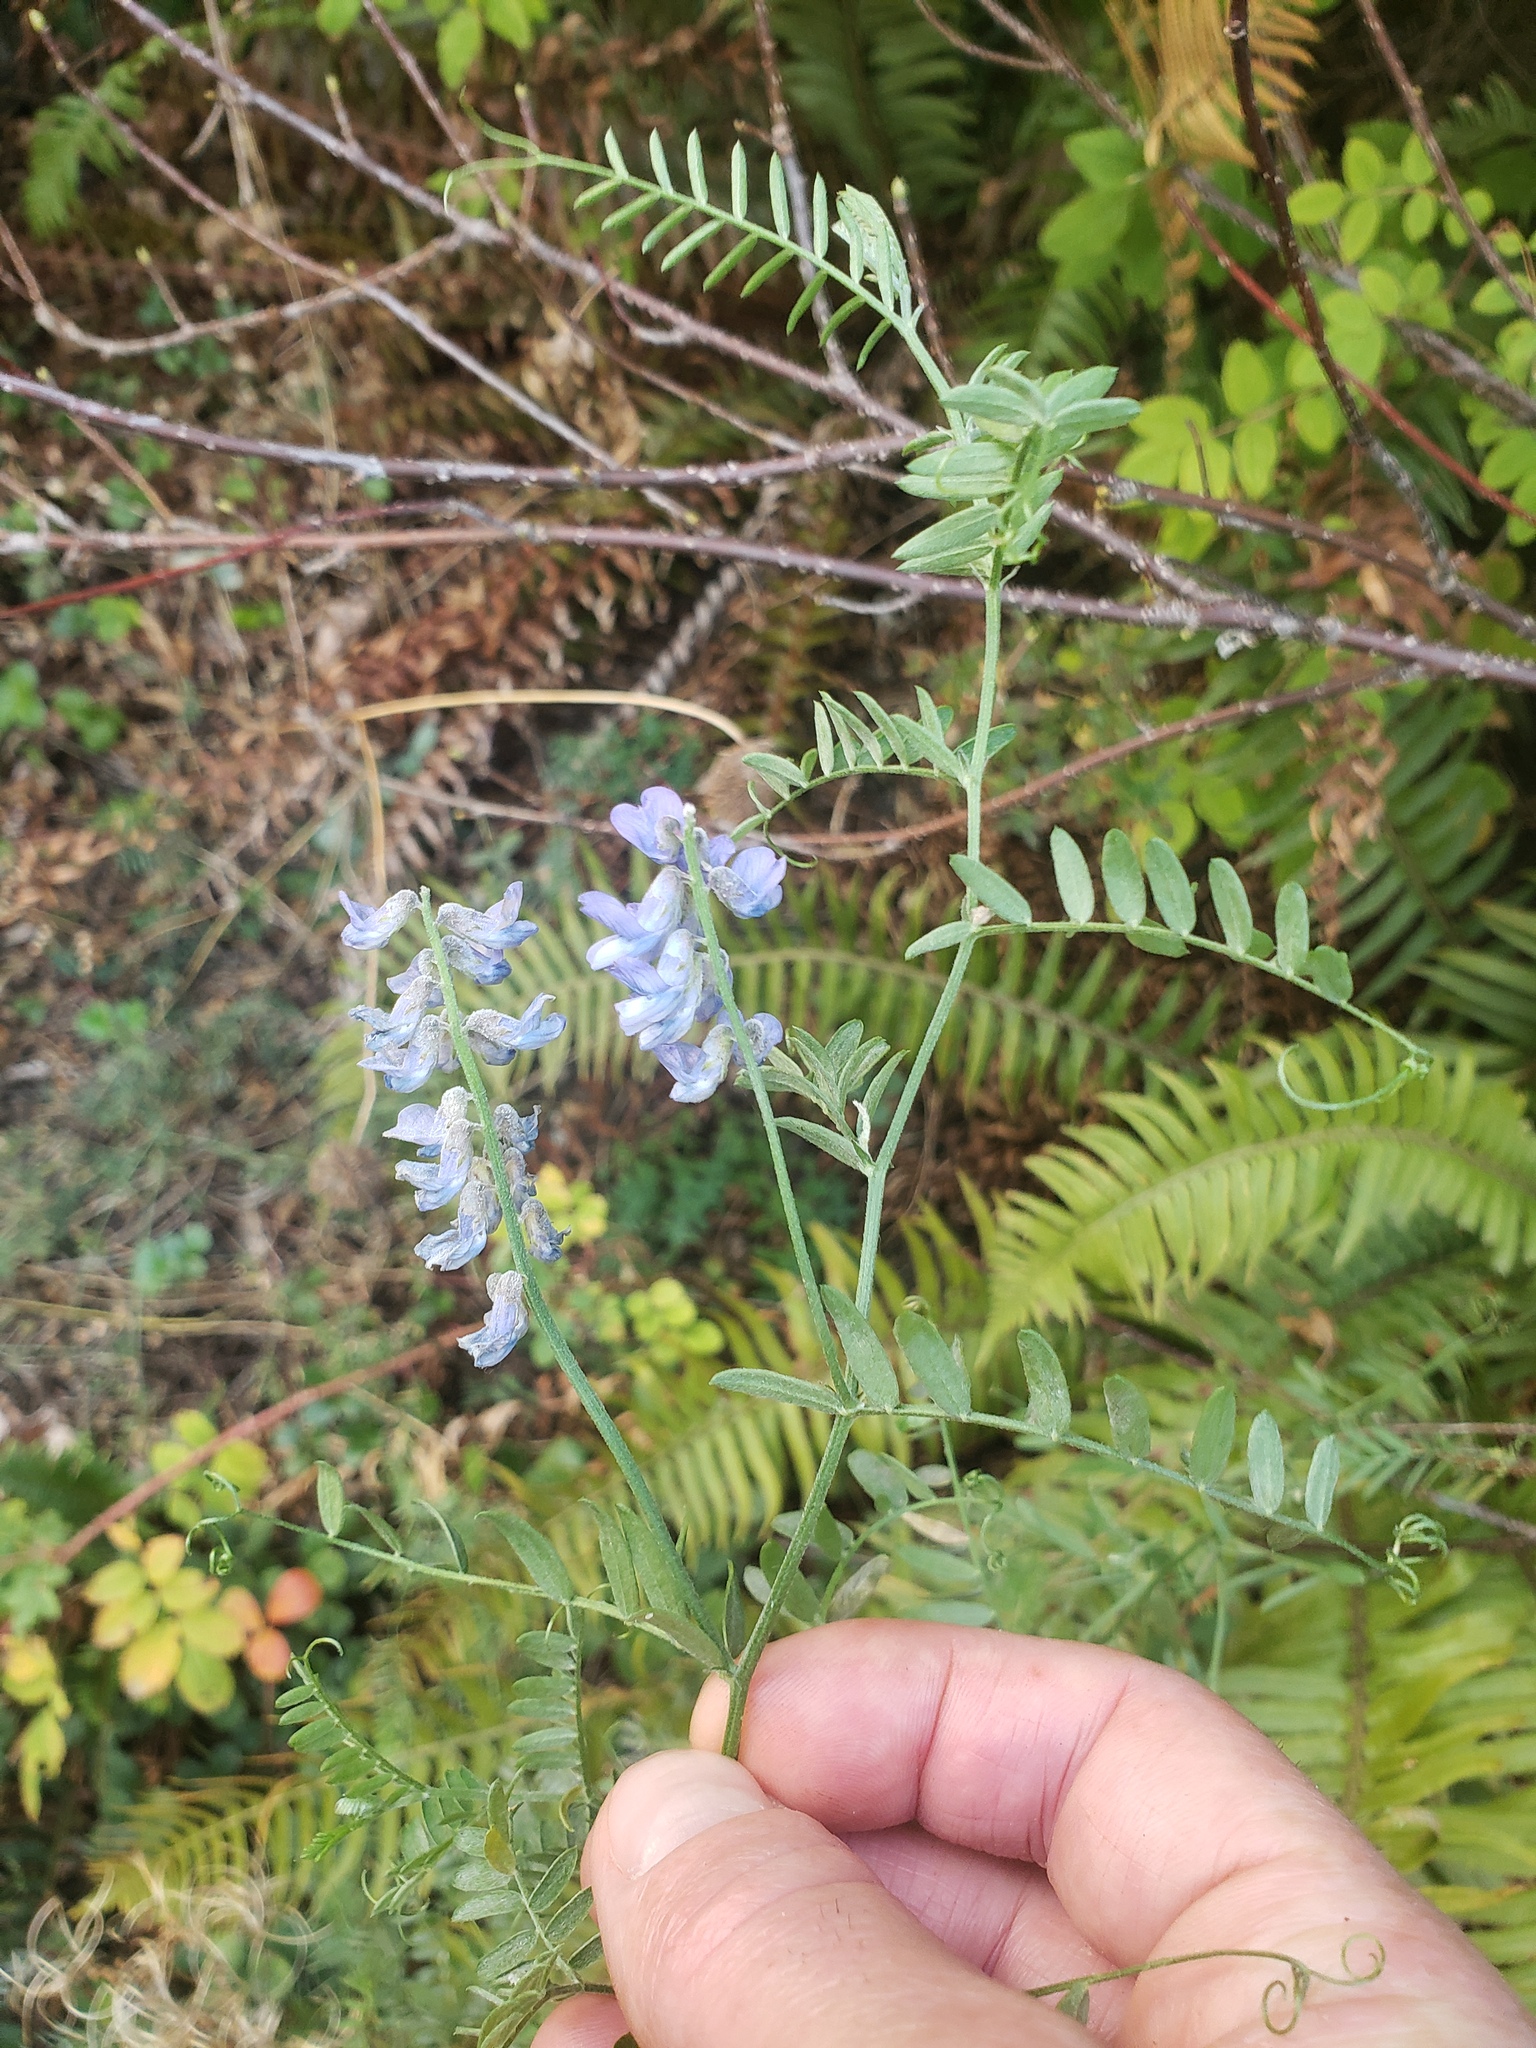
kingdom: Plantae
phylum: Tracheophyta
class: Magnoliopsida
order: Fabales
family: Fabaceae
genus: Vicia
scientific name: Vicia cracca
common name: Bird vetch
